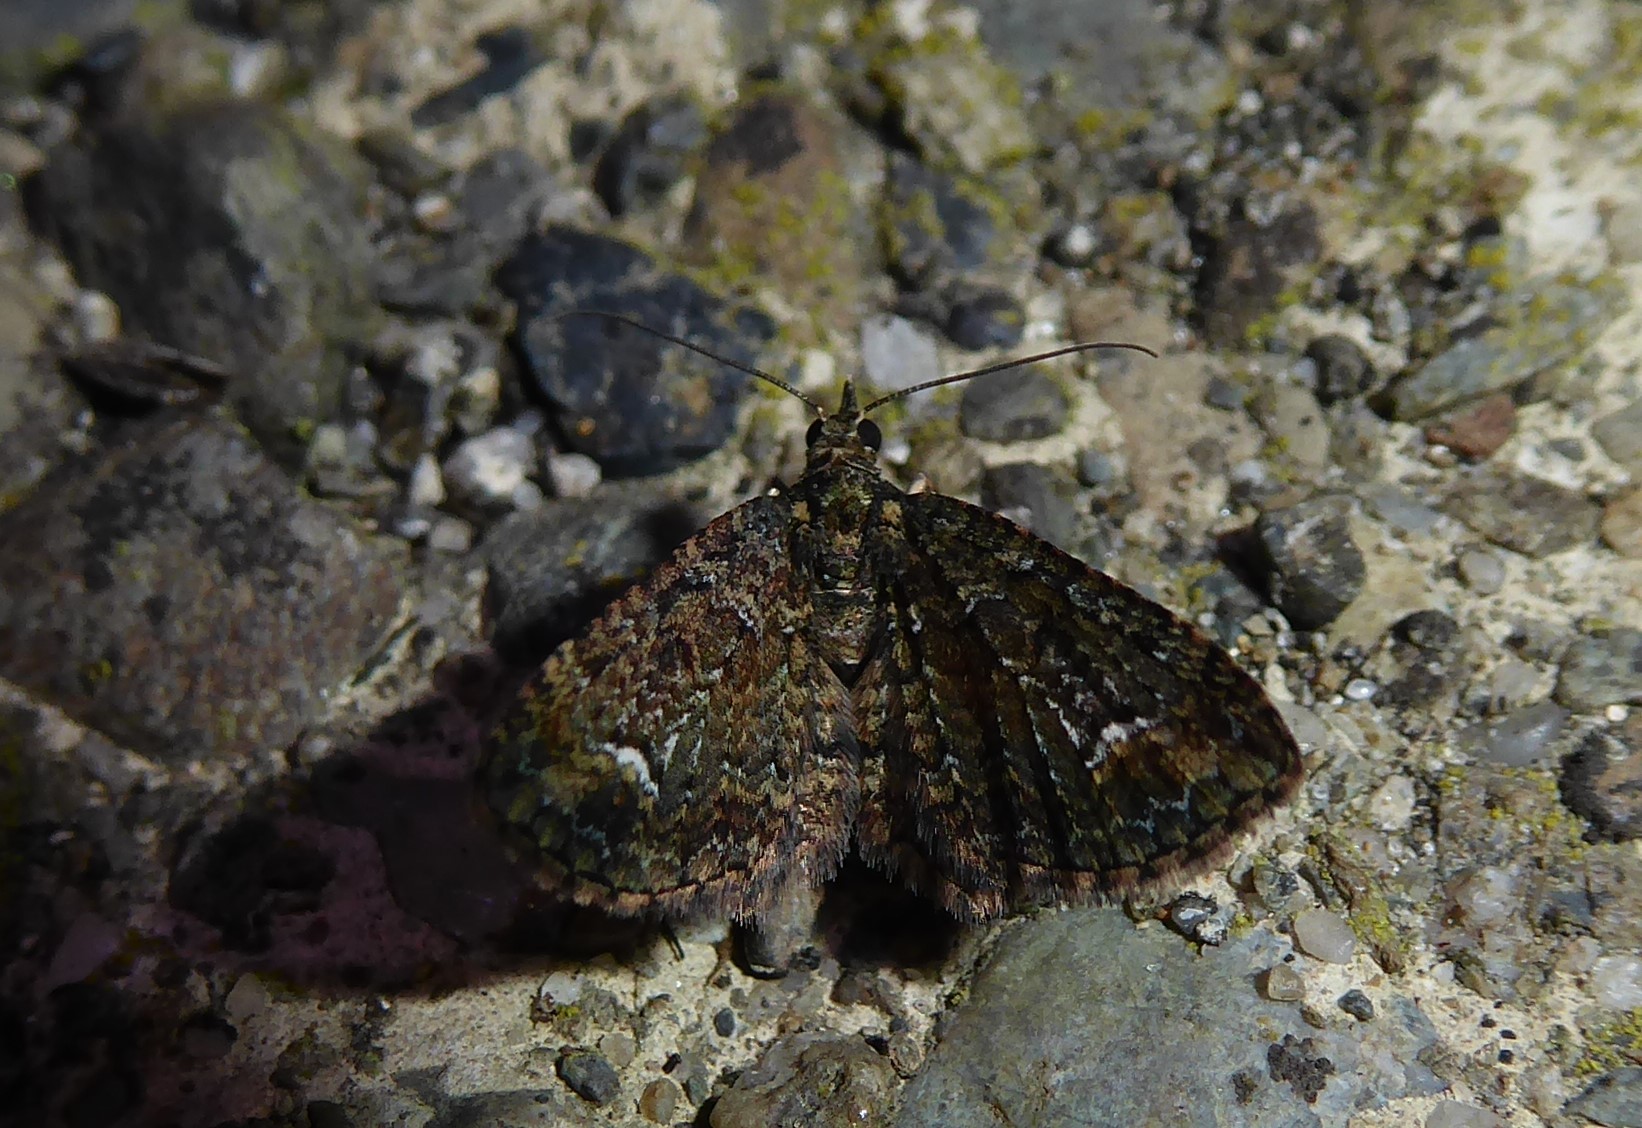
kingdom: Animalia
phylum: Arthropoda
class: Insecta
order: Lepidoptera
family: Geometridae
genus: Pasiphilodes
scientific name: Pasiphilodes testulata
